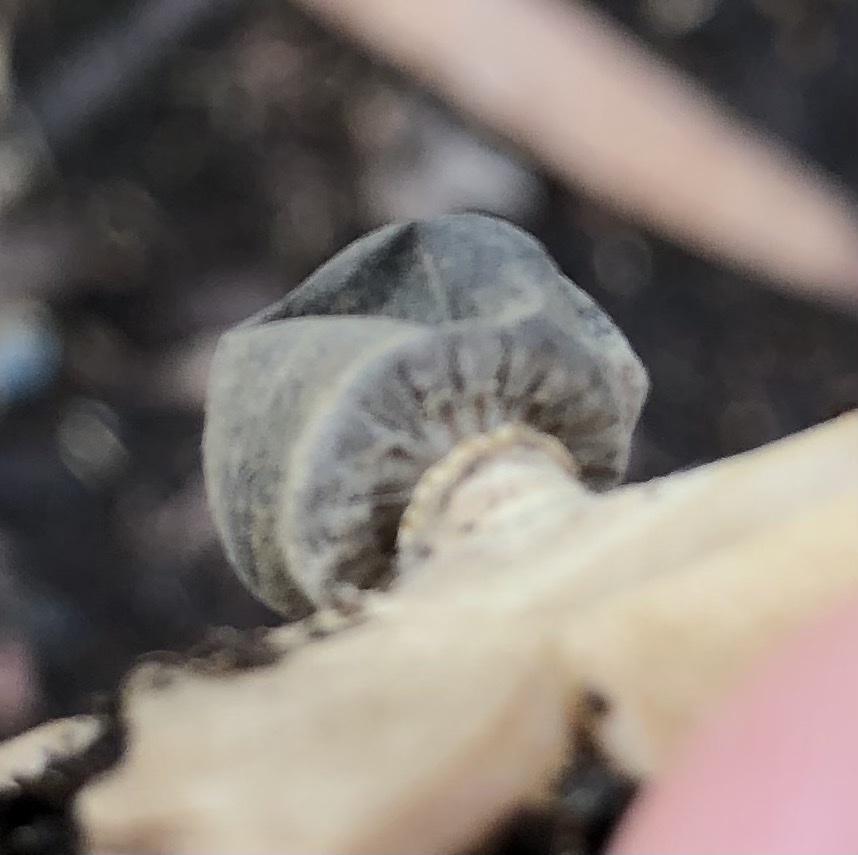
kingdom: Fungi
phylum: Basidiomycota
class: Agaricomycetes
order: Geastrales
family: Geastraceae
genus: Geastrum
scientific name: Geastrum pectinatum
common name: Beaked earthstar
